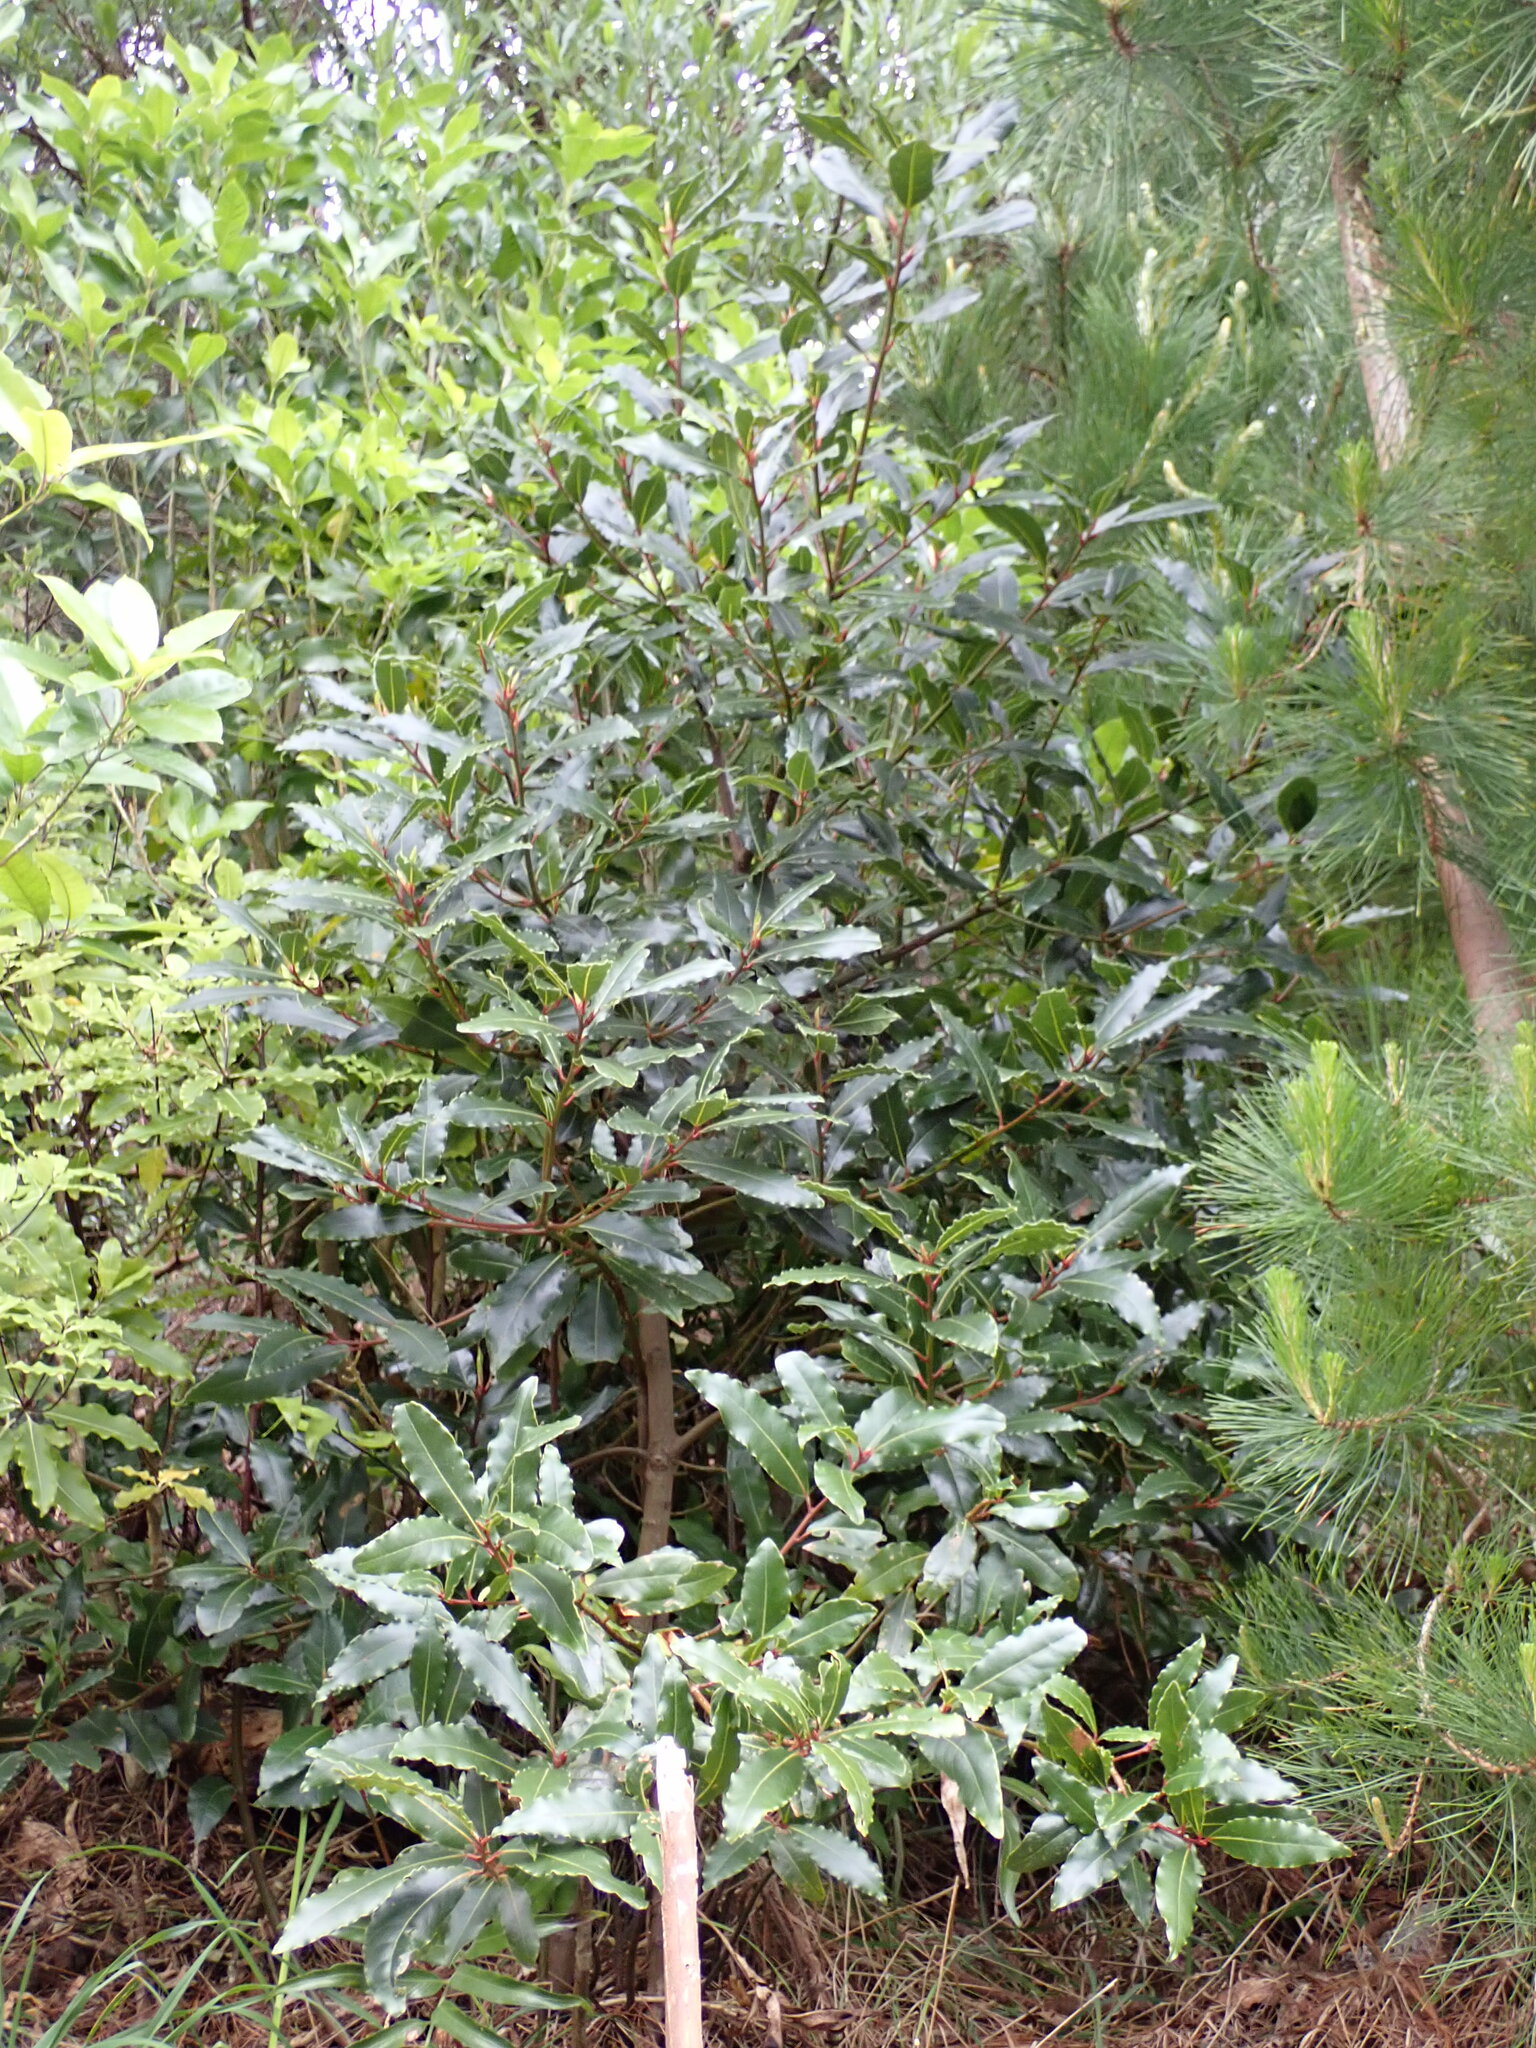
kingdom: Plantae
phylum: Tracheophyta
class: Magnoliopsida
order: Laurales
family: Lauraceae
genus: Laurus
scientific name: Laurus nobilis
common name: Bay
